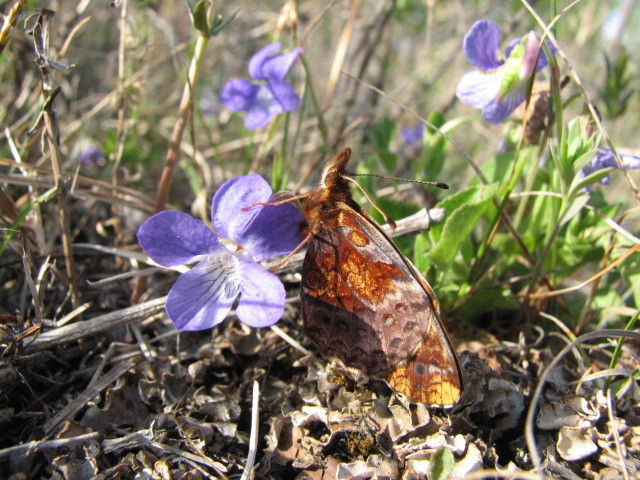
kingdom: Animalia
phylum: Arthropoda
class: Insecta
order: Lepidoptera
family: Nymphalidae
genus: Clossiana
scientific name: Clossiana toddi
